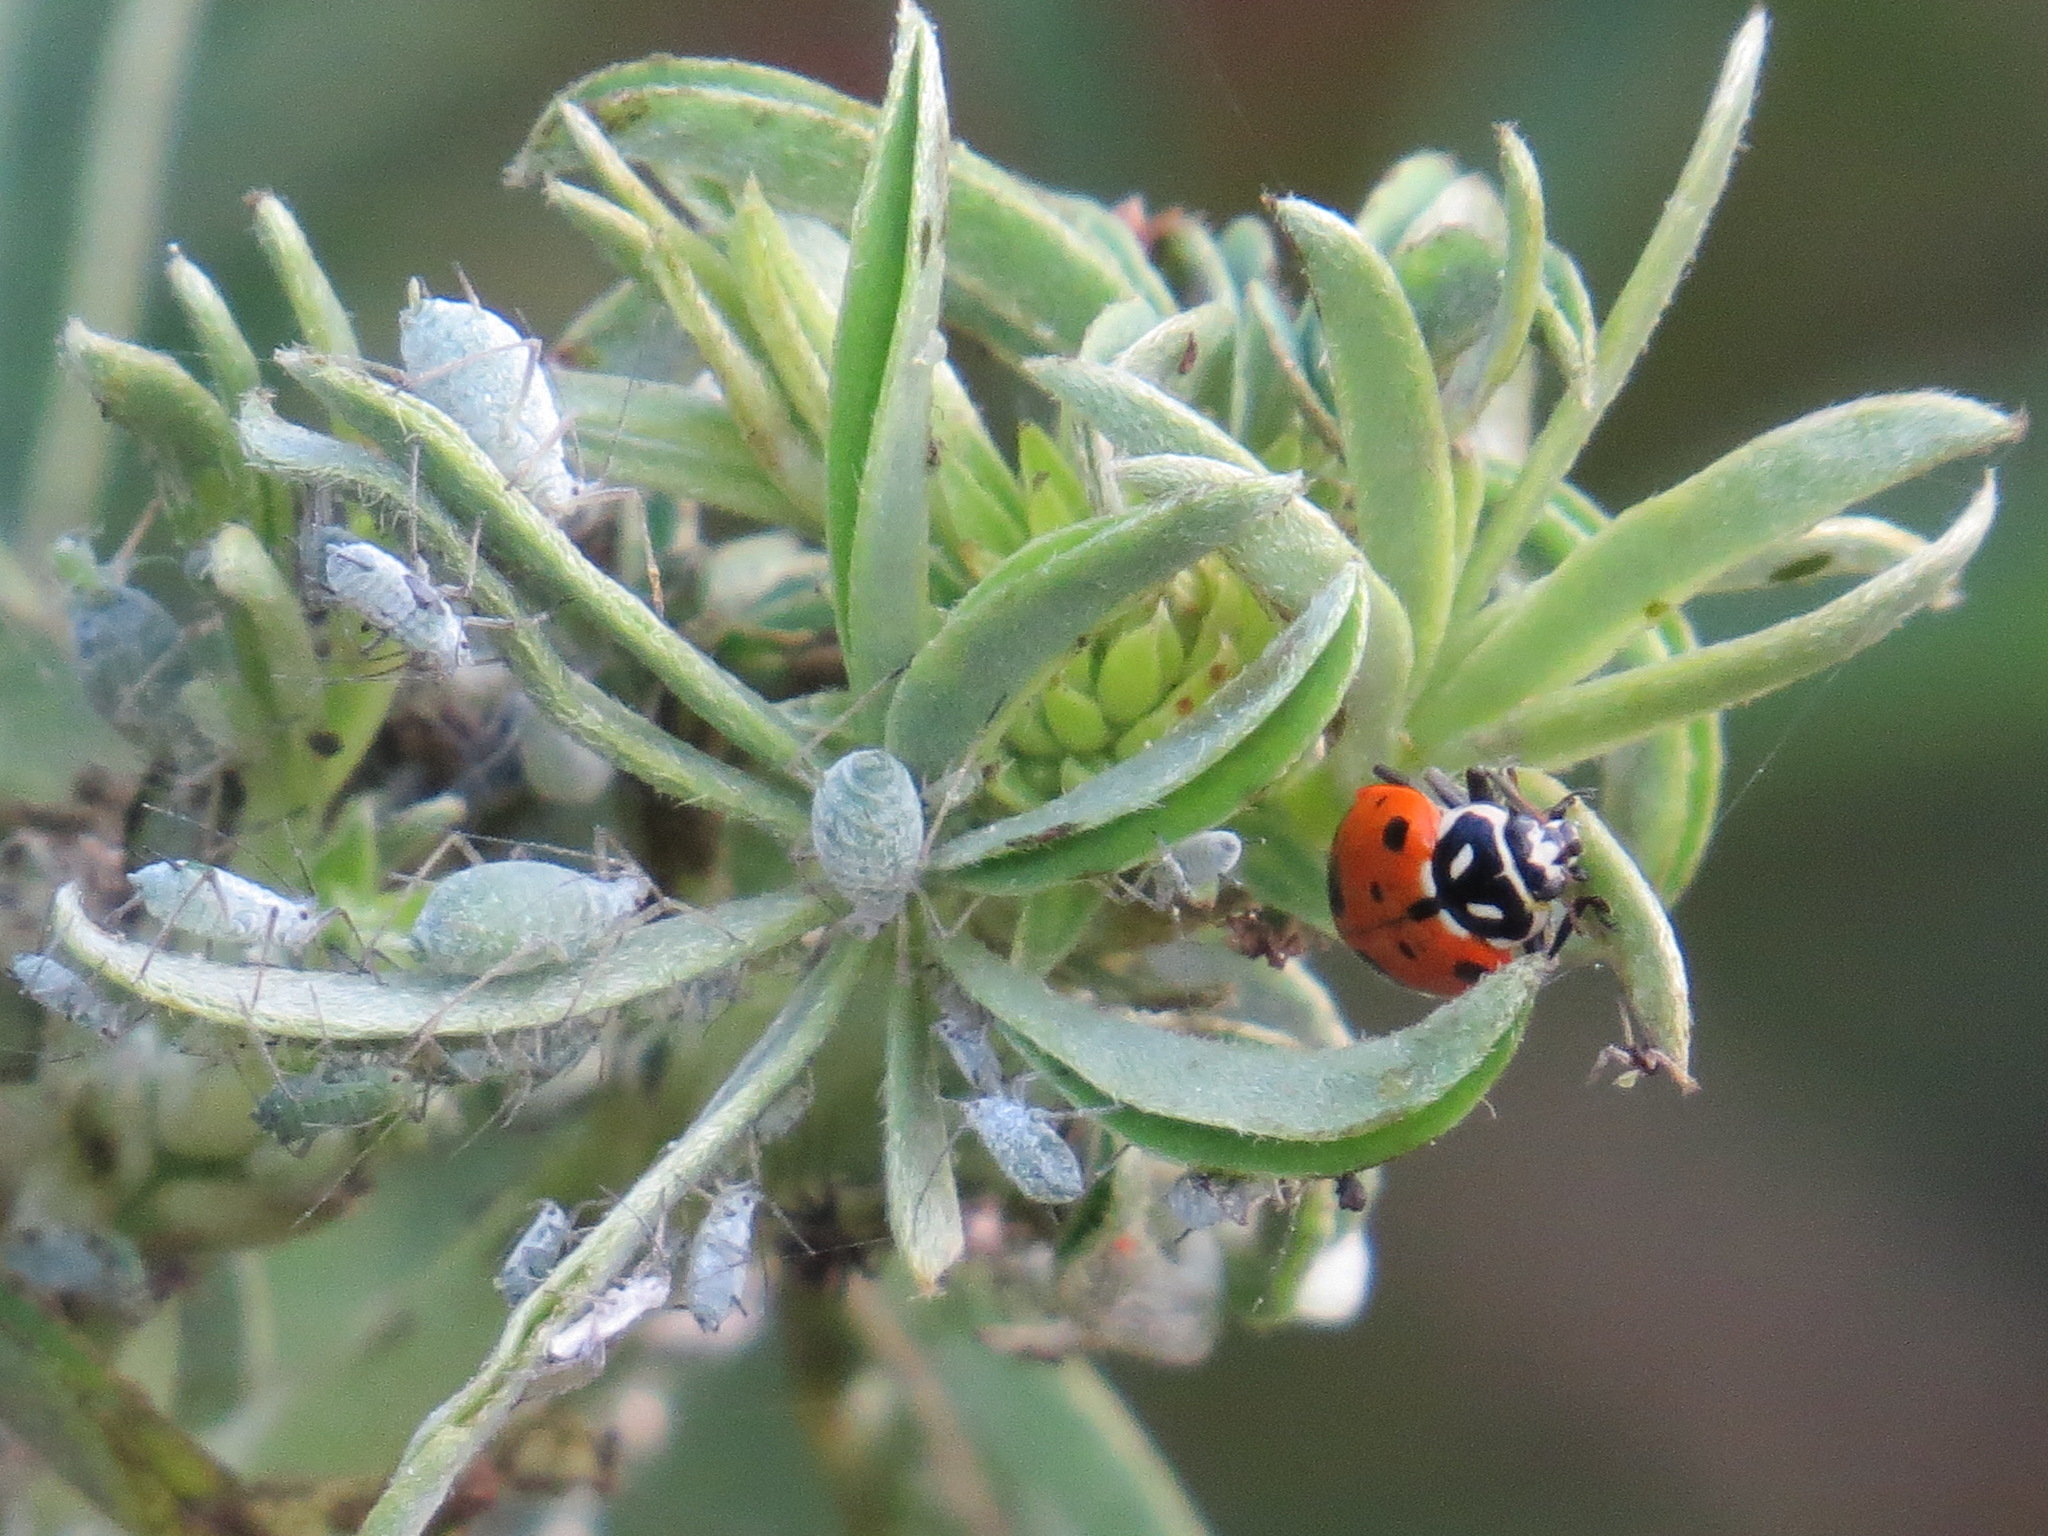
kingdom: Animalia
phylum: Arthropoda
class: Insecta
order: Coleoptera
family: Coccinellidae
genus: Hippodamia
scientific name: Hippodamia convergens
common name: Convergent lady beetle
